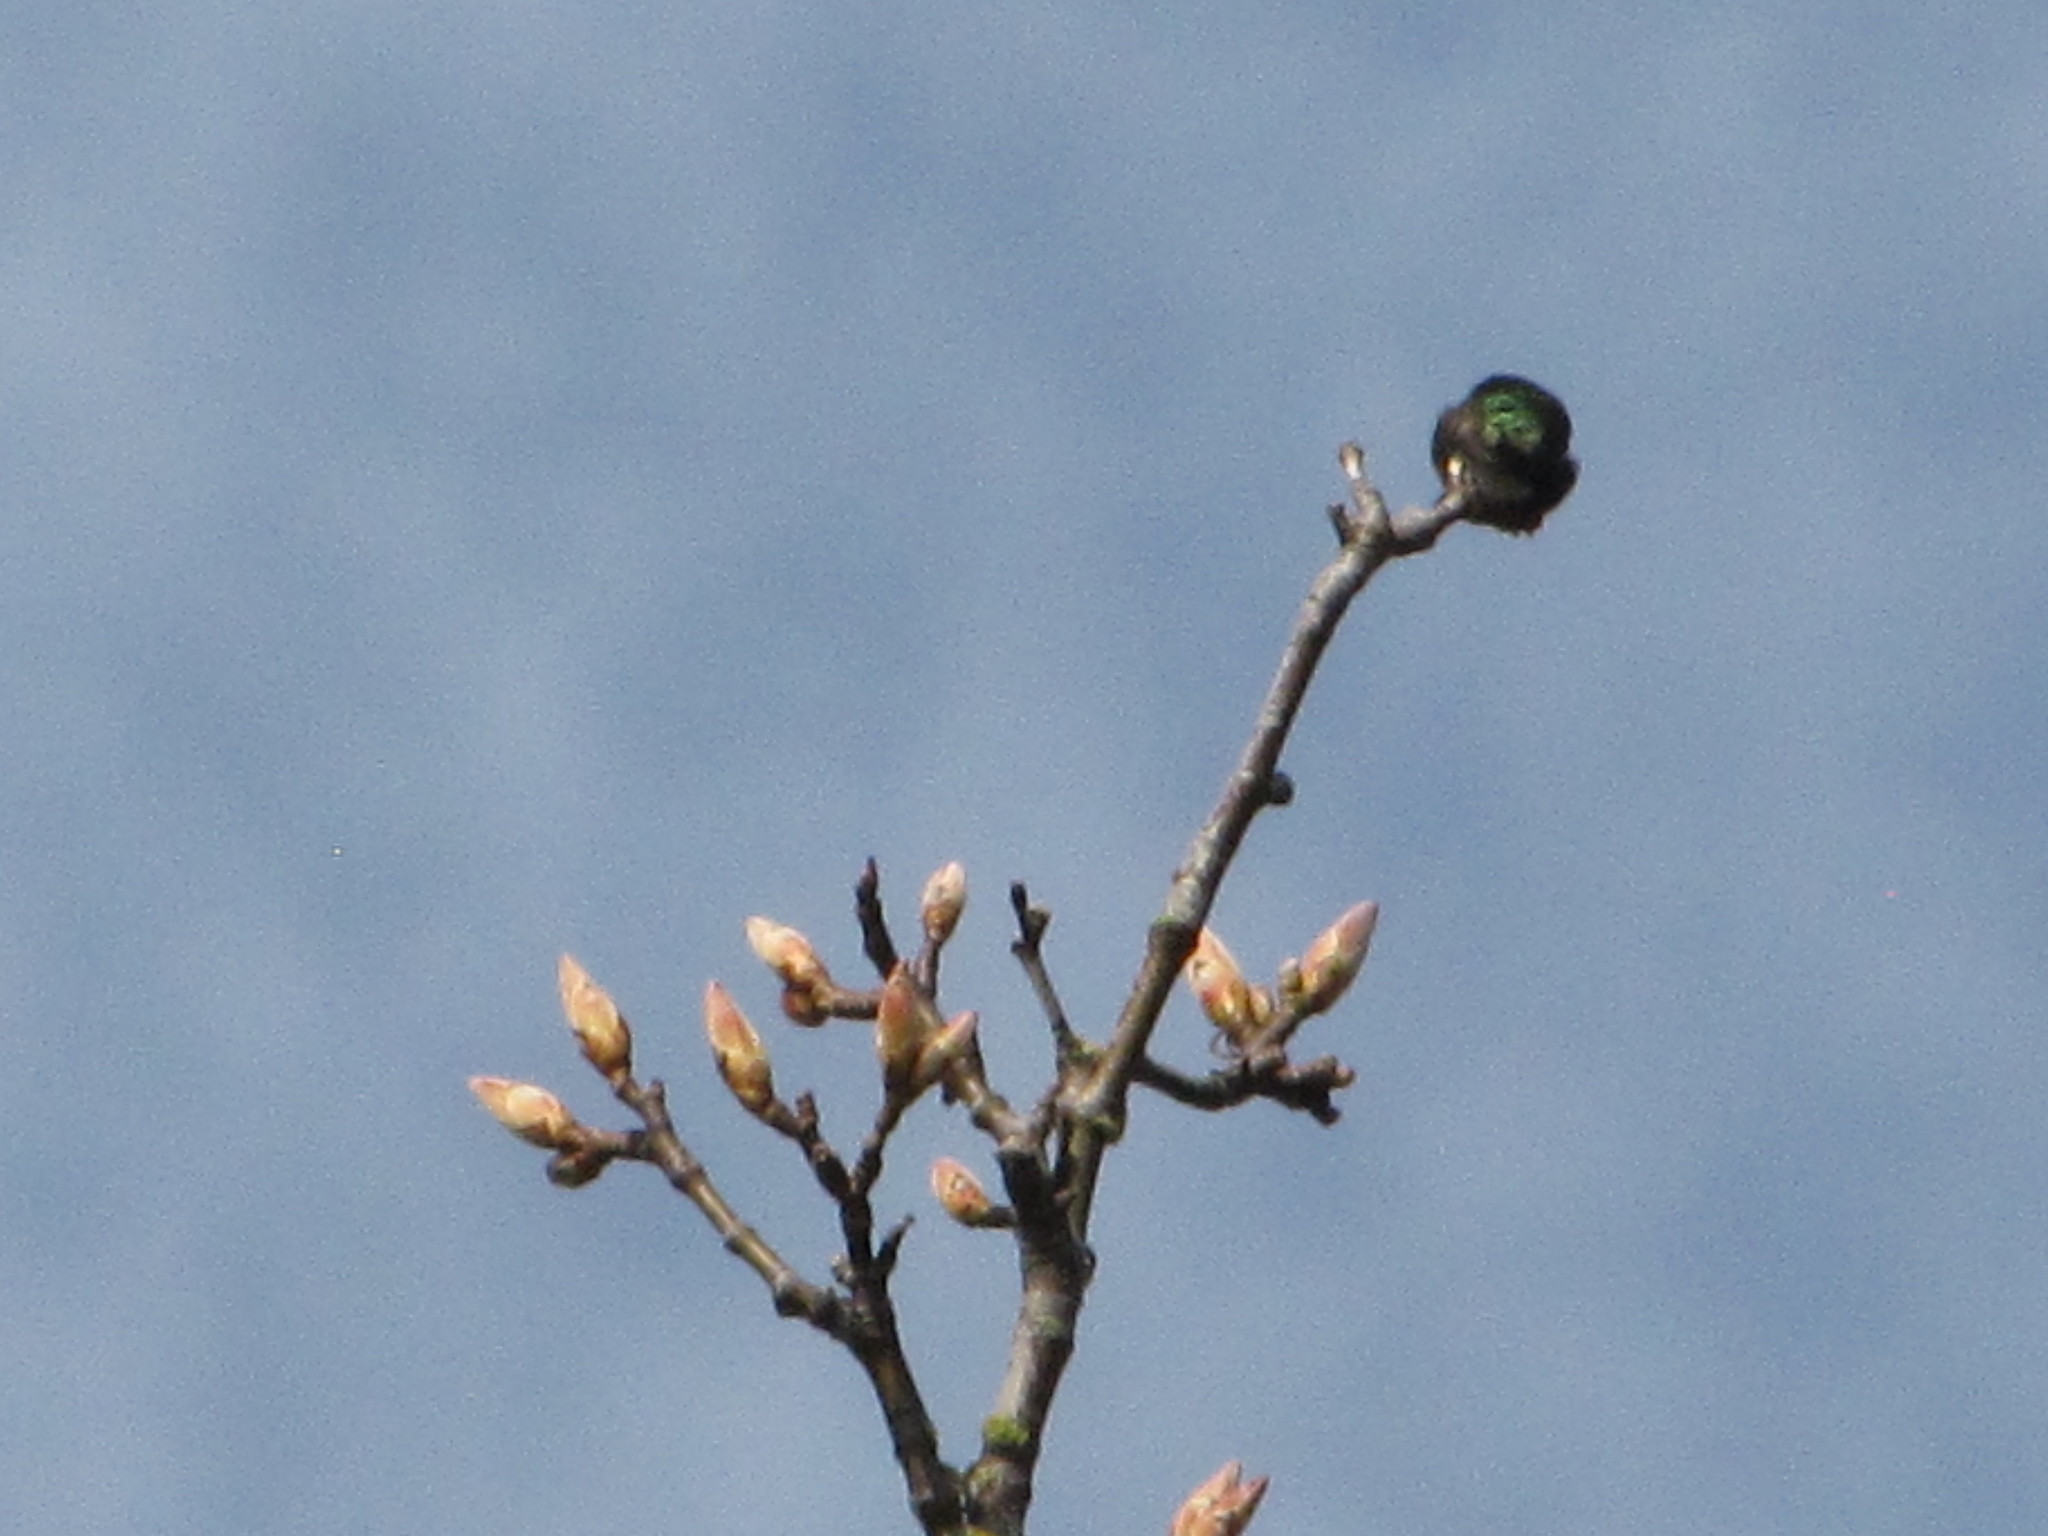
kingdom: Animalia
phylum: Chordata
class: Aves
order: Apodiformes
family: Trochilidae
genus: Calypte
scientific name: Calypte anna
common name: Anna's hummingbird
